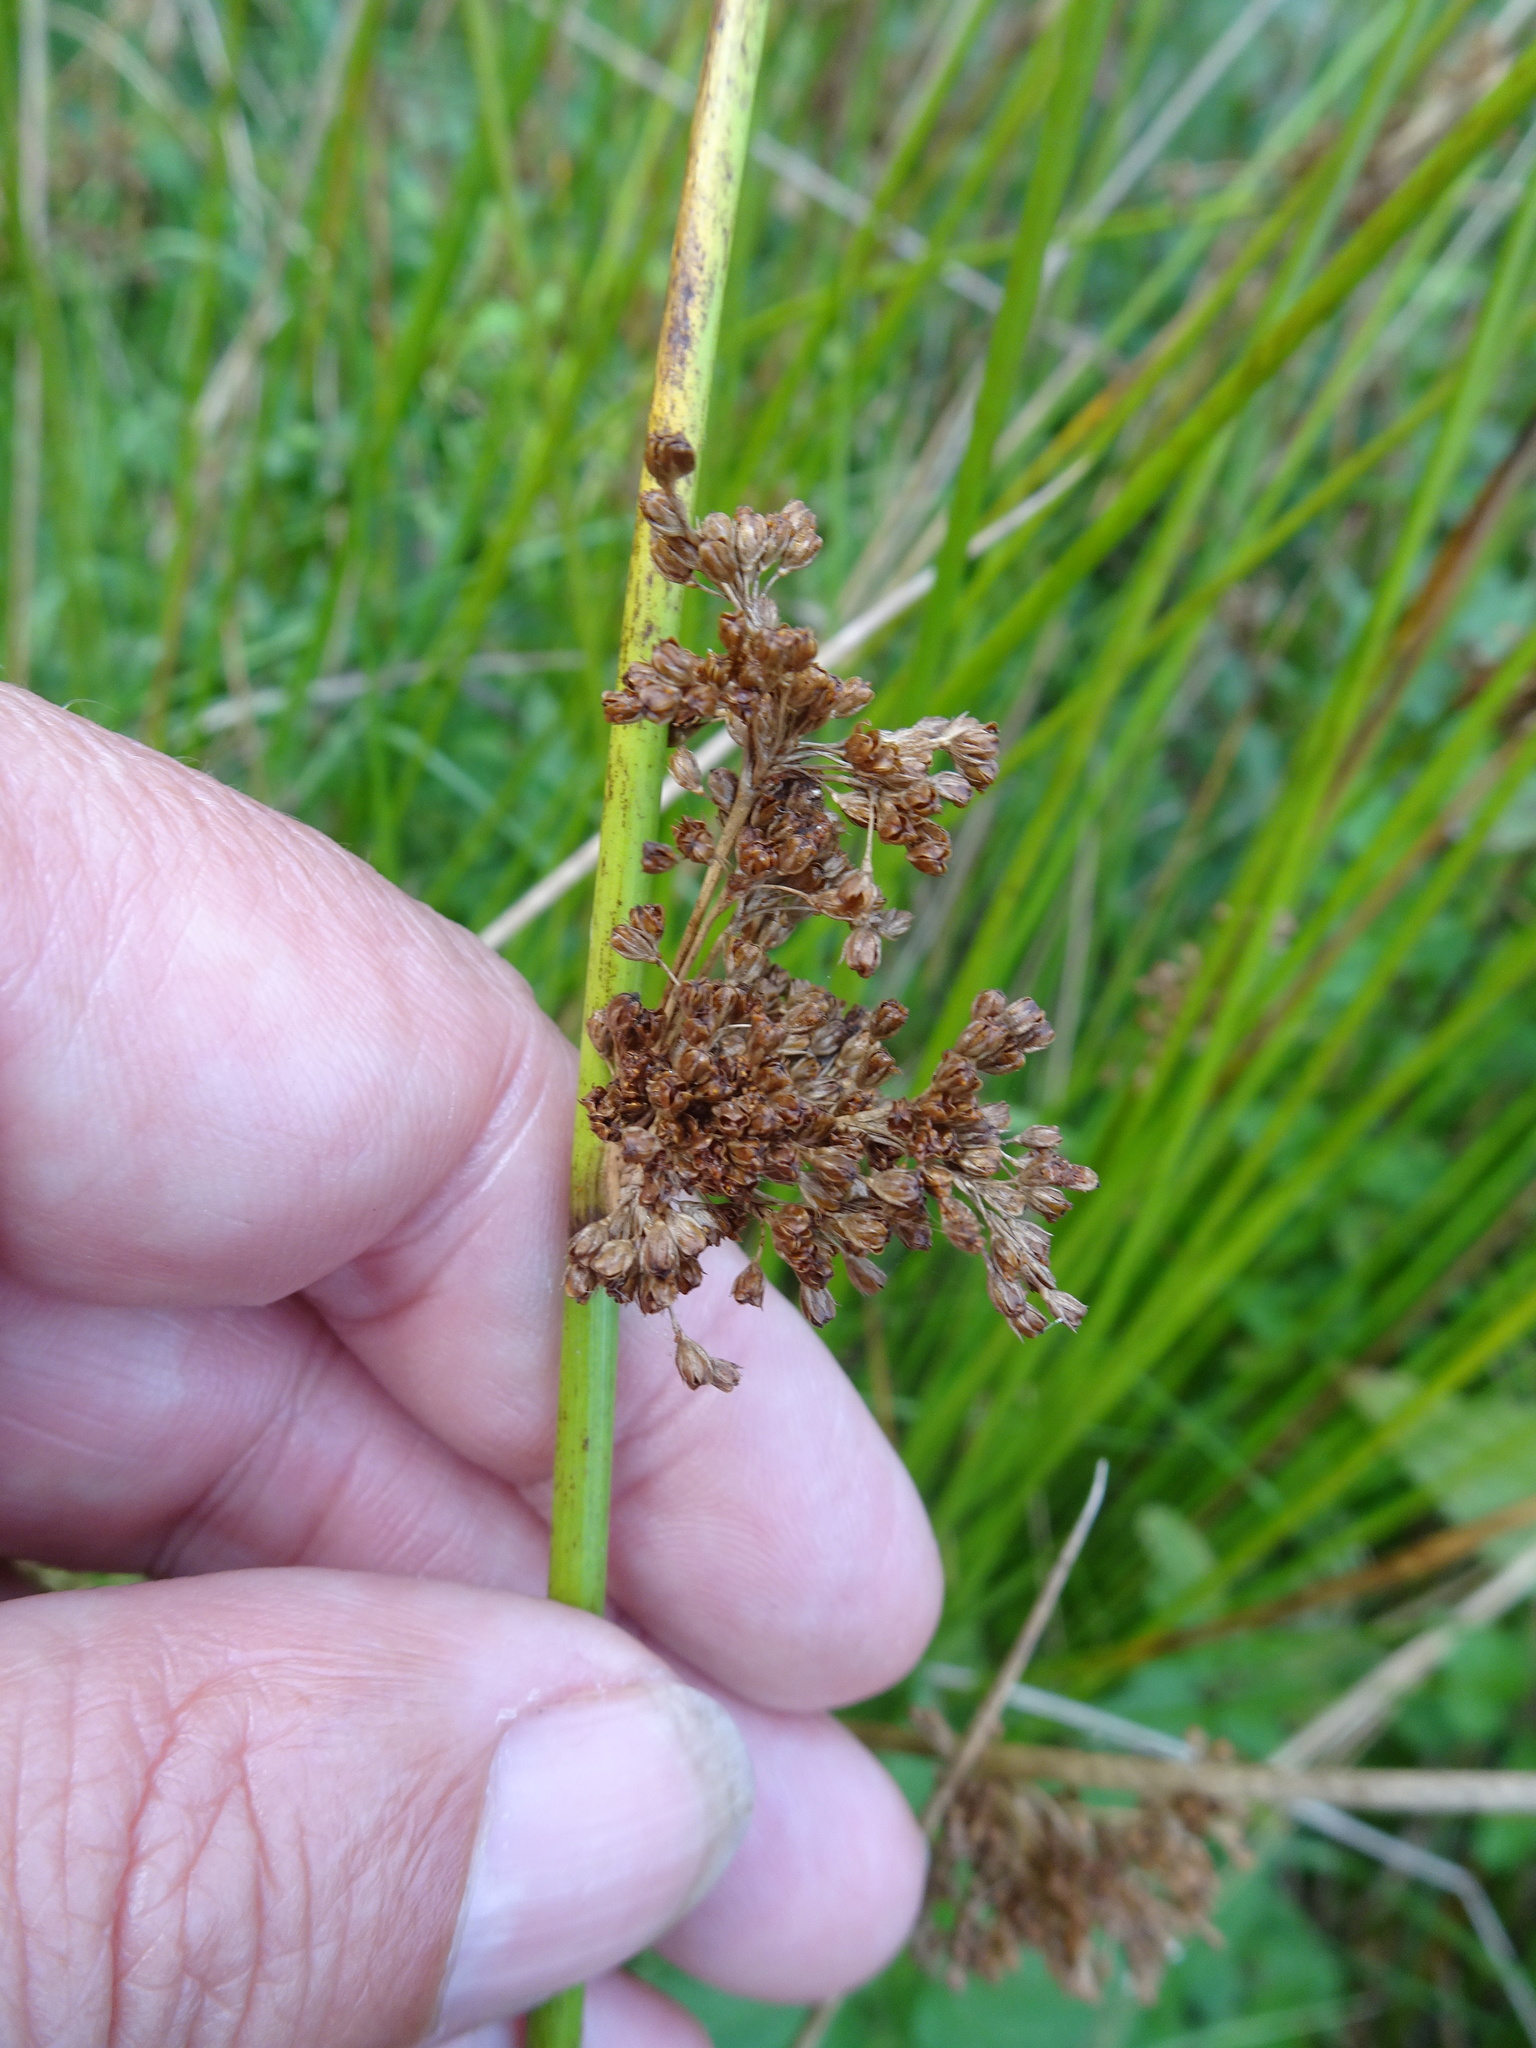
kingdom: Plantae
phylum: Tracheophyta
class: Liliopsida
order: Poales
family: Juncaceae
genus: Juncus
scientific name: Juncus effusus
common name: Soft rush
